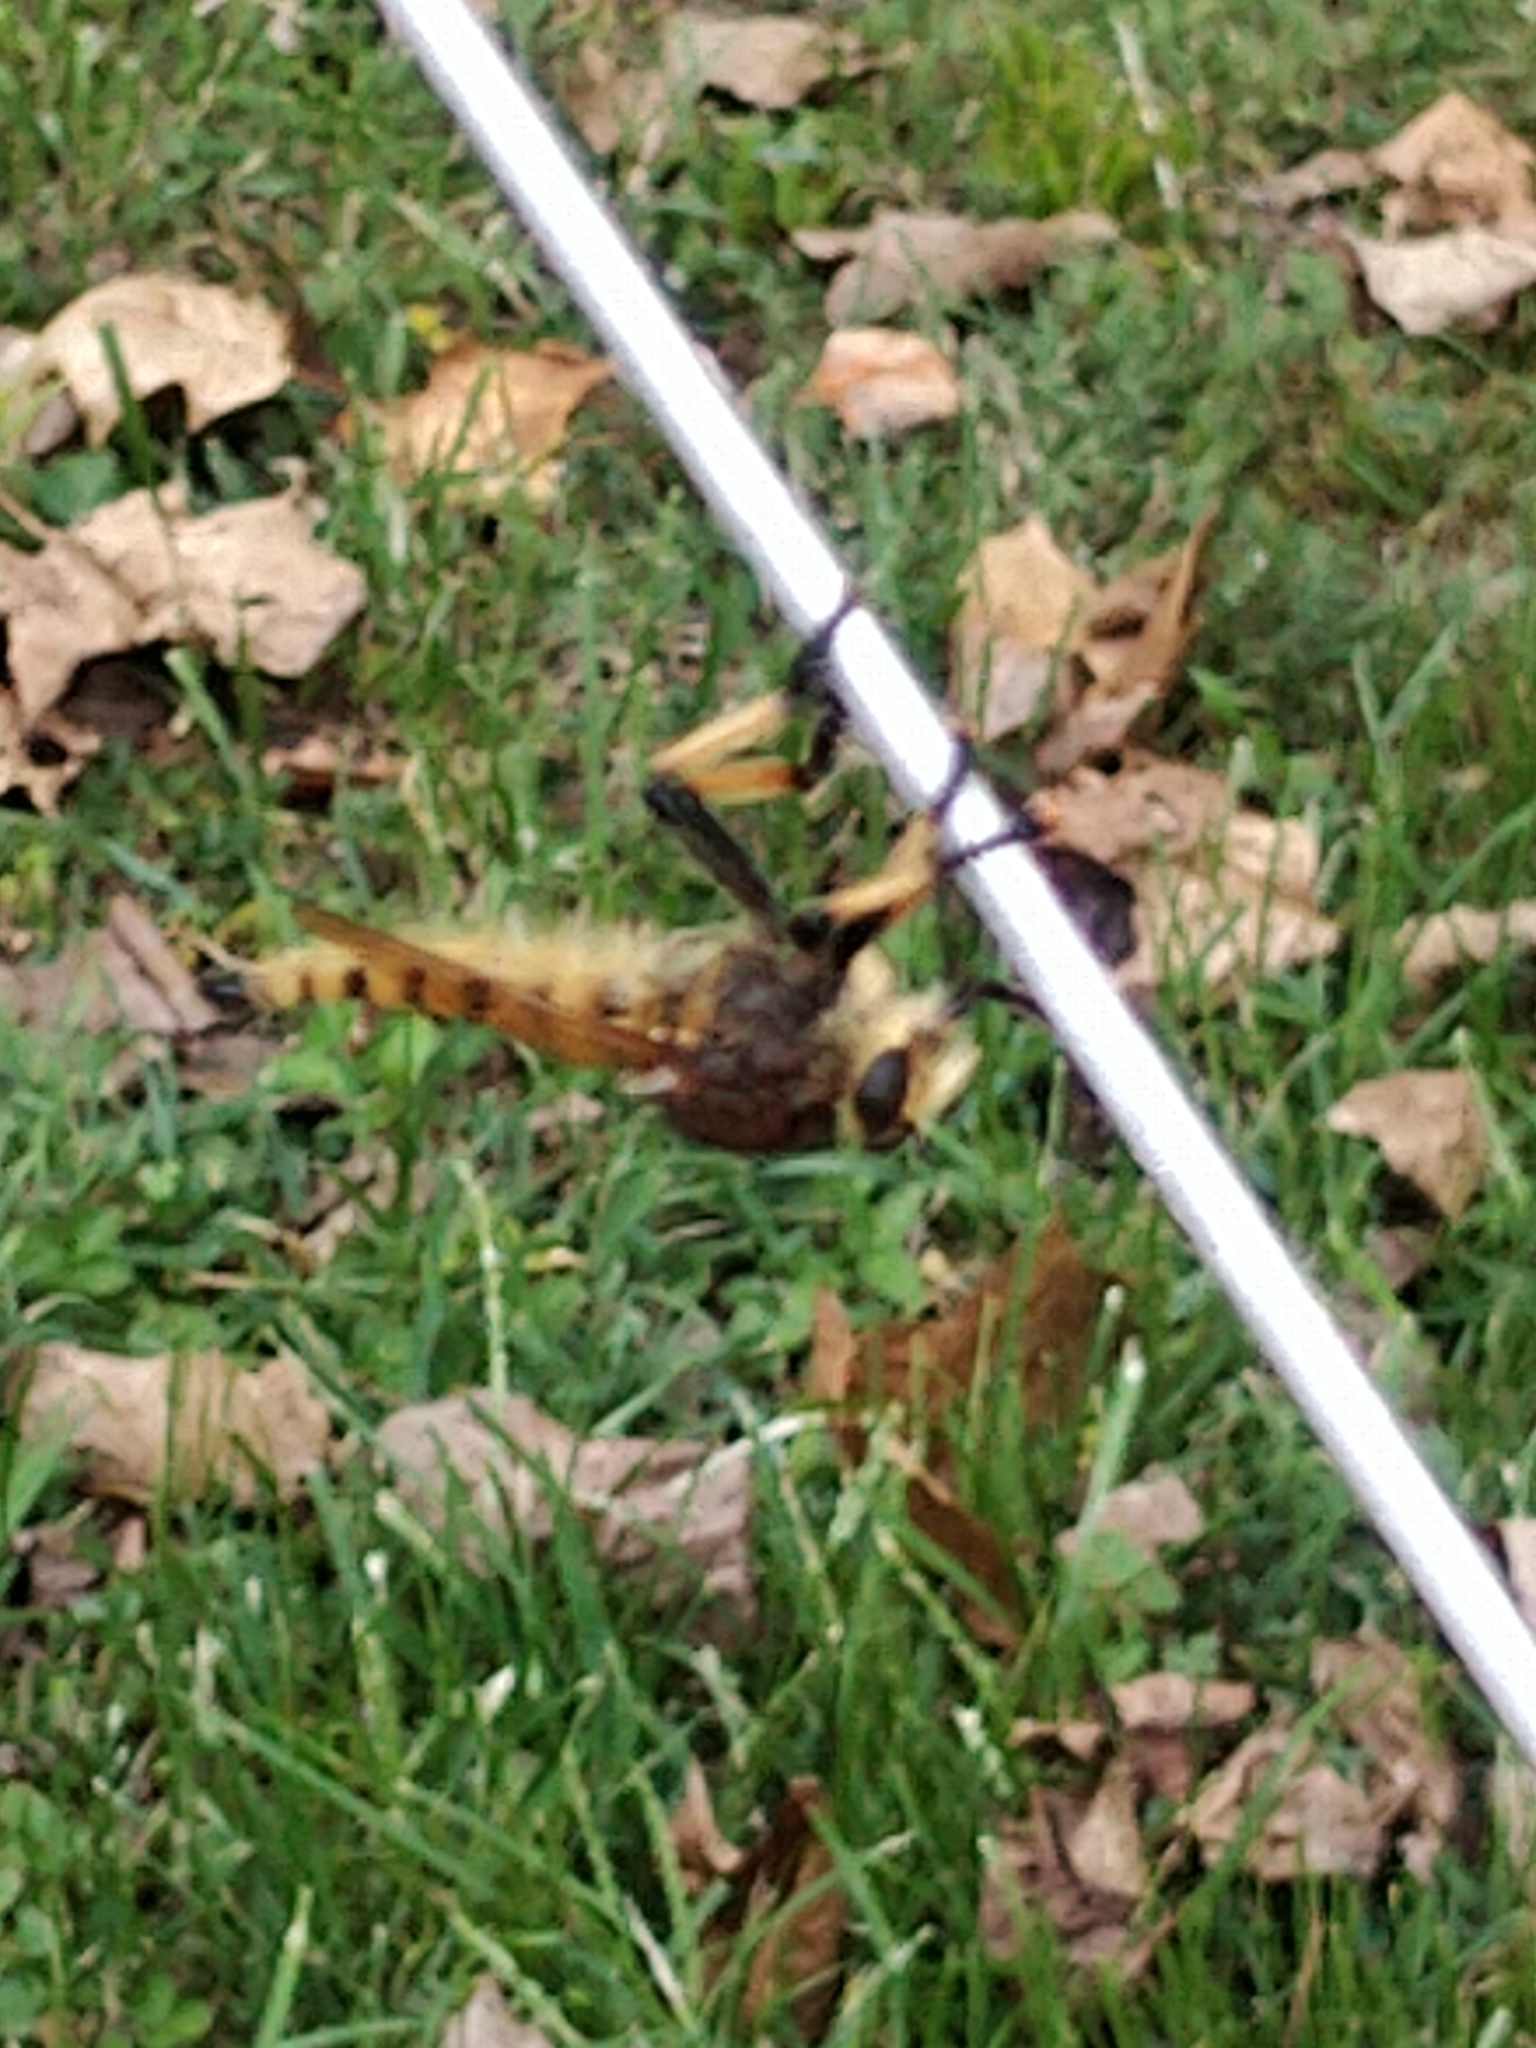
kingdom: Animalia
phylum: Arthropoda
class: Insecta
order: Diptera
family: Asilidae
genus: Promachus
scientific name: Promachus rufipes
